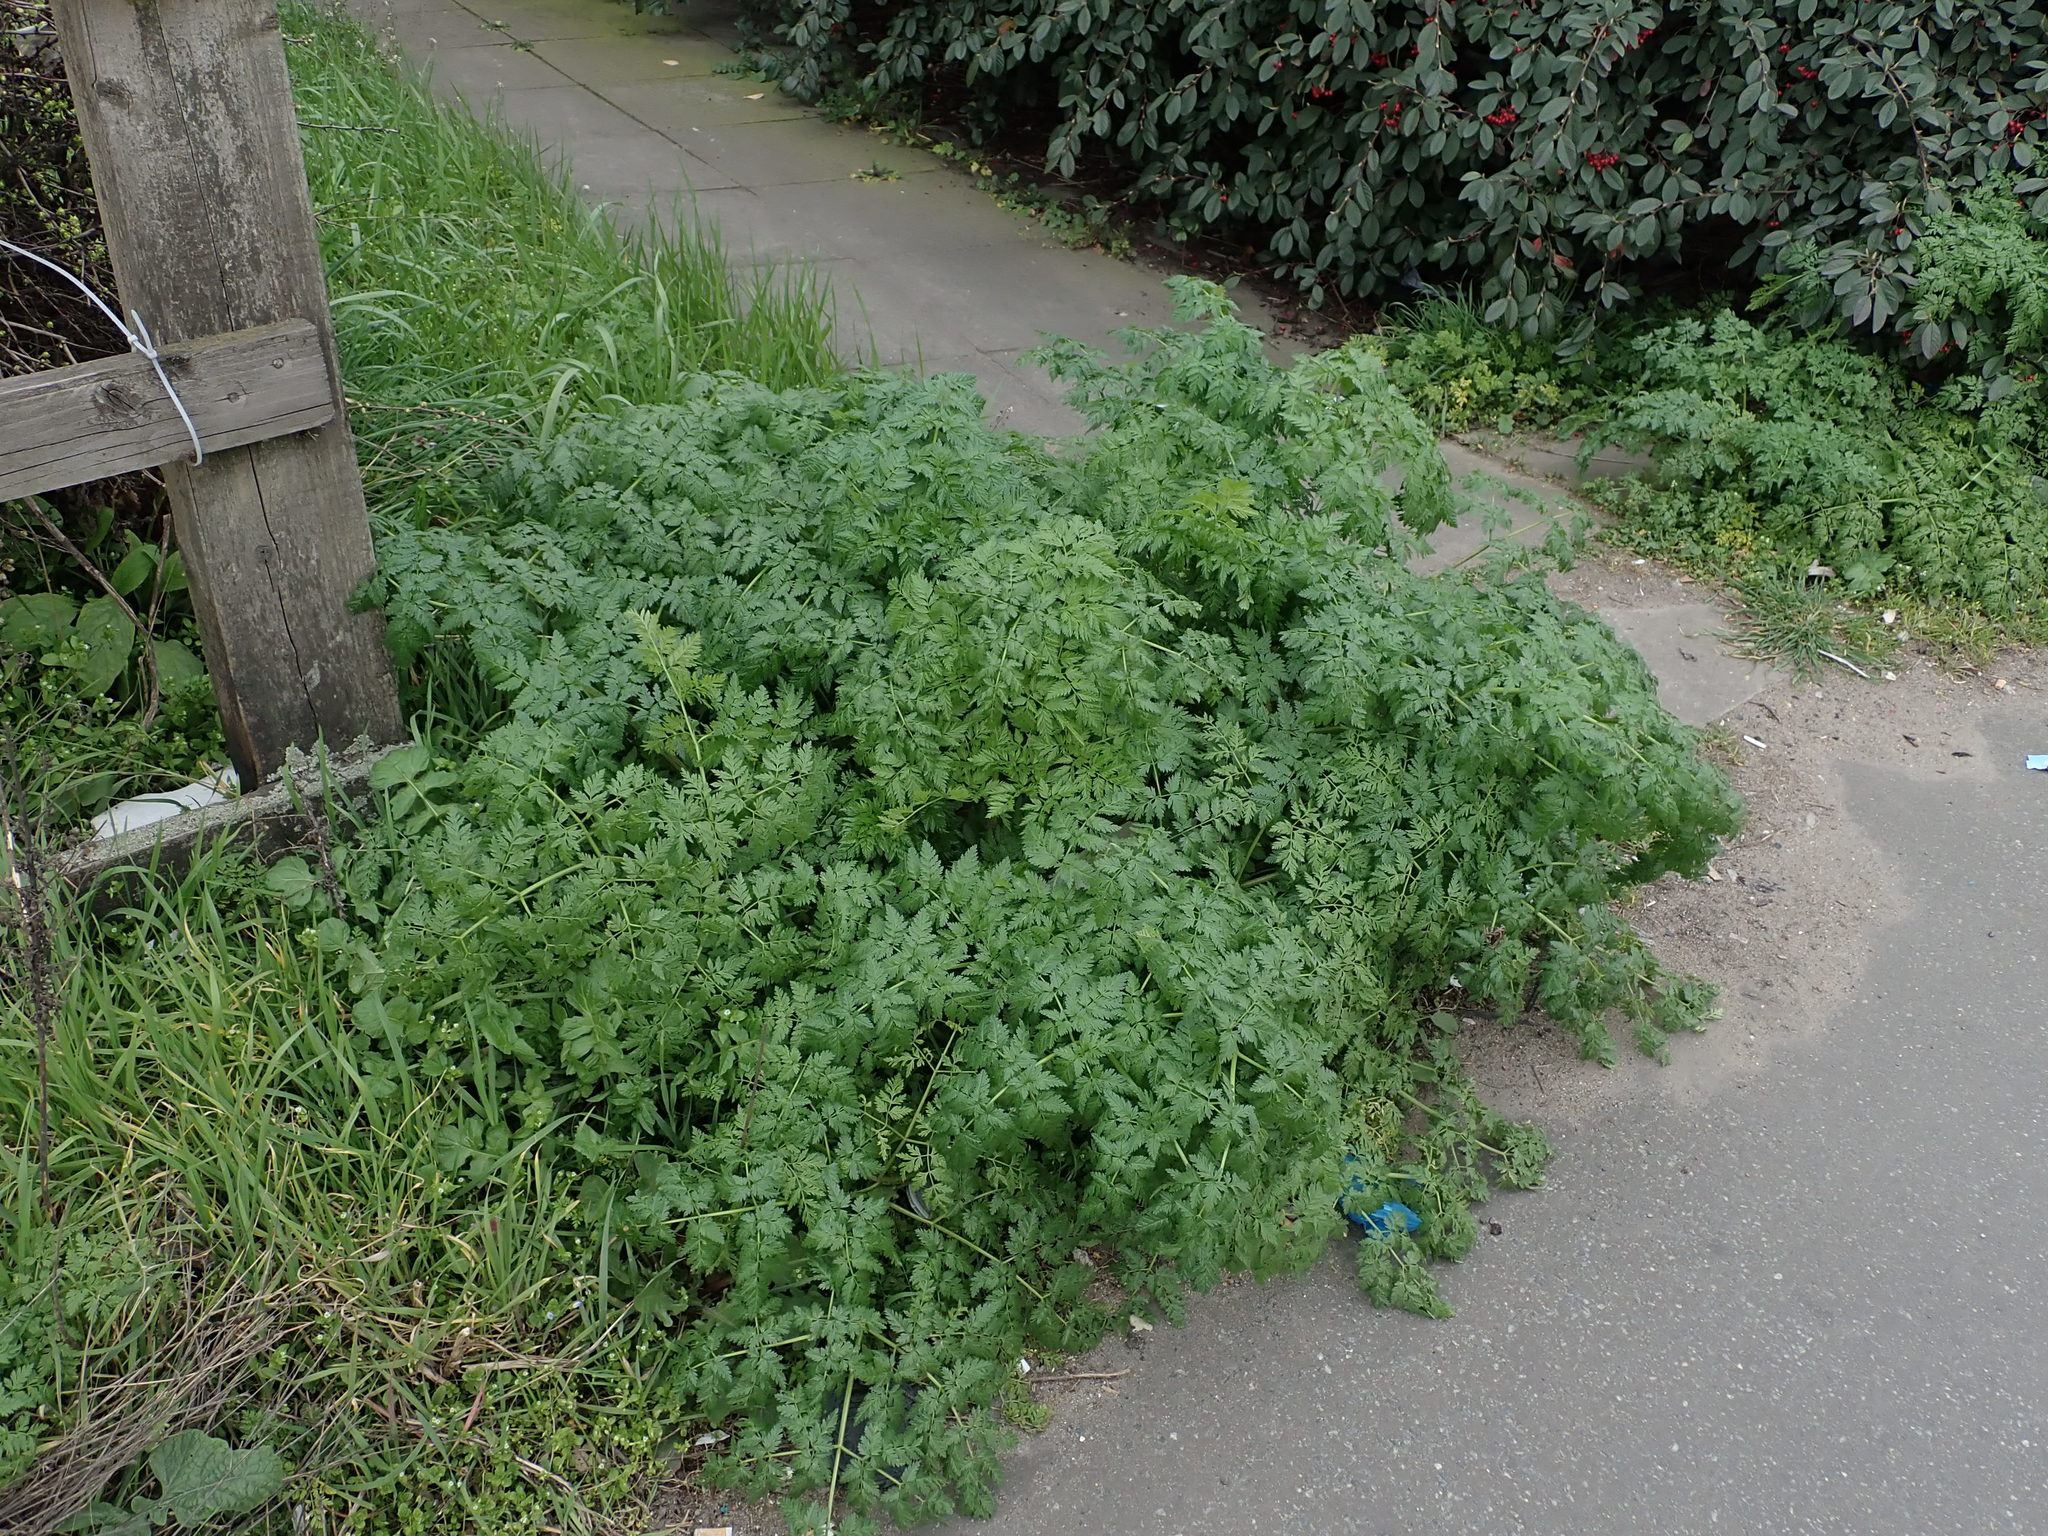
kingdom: Plantae
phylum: Tracheophyta
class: Magnoliopsida
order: Apiales
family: Apiaceae
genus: Conium
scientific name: Conium maculatum
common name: Hemlock
